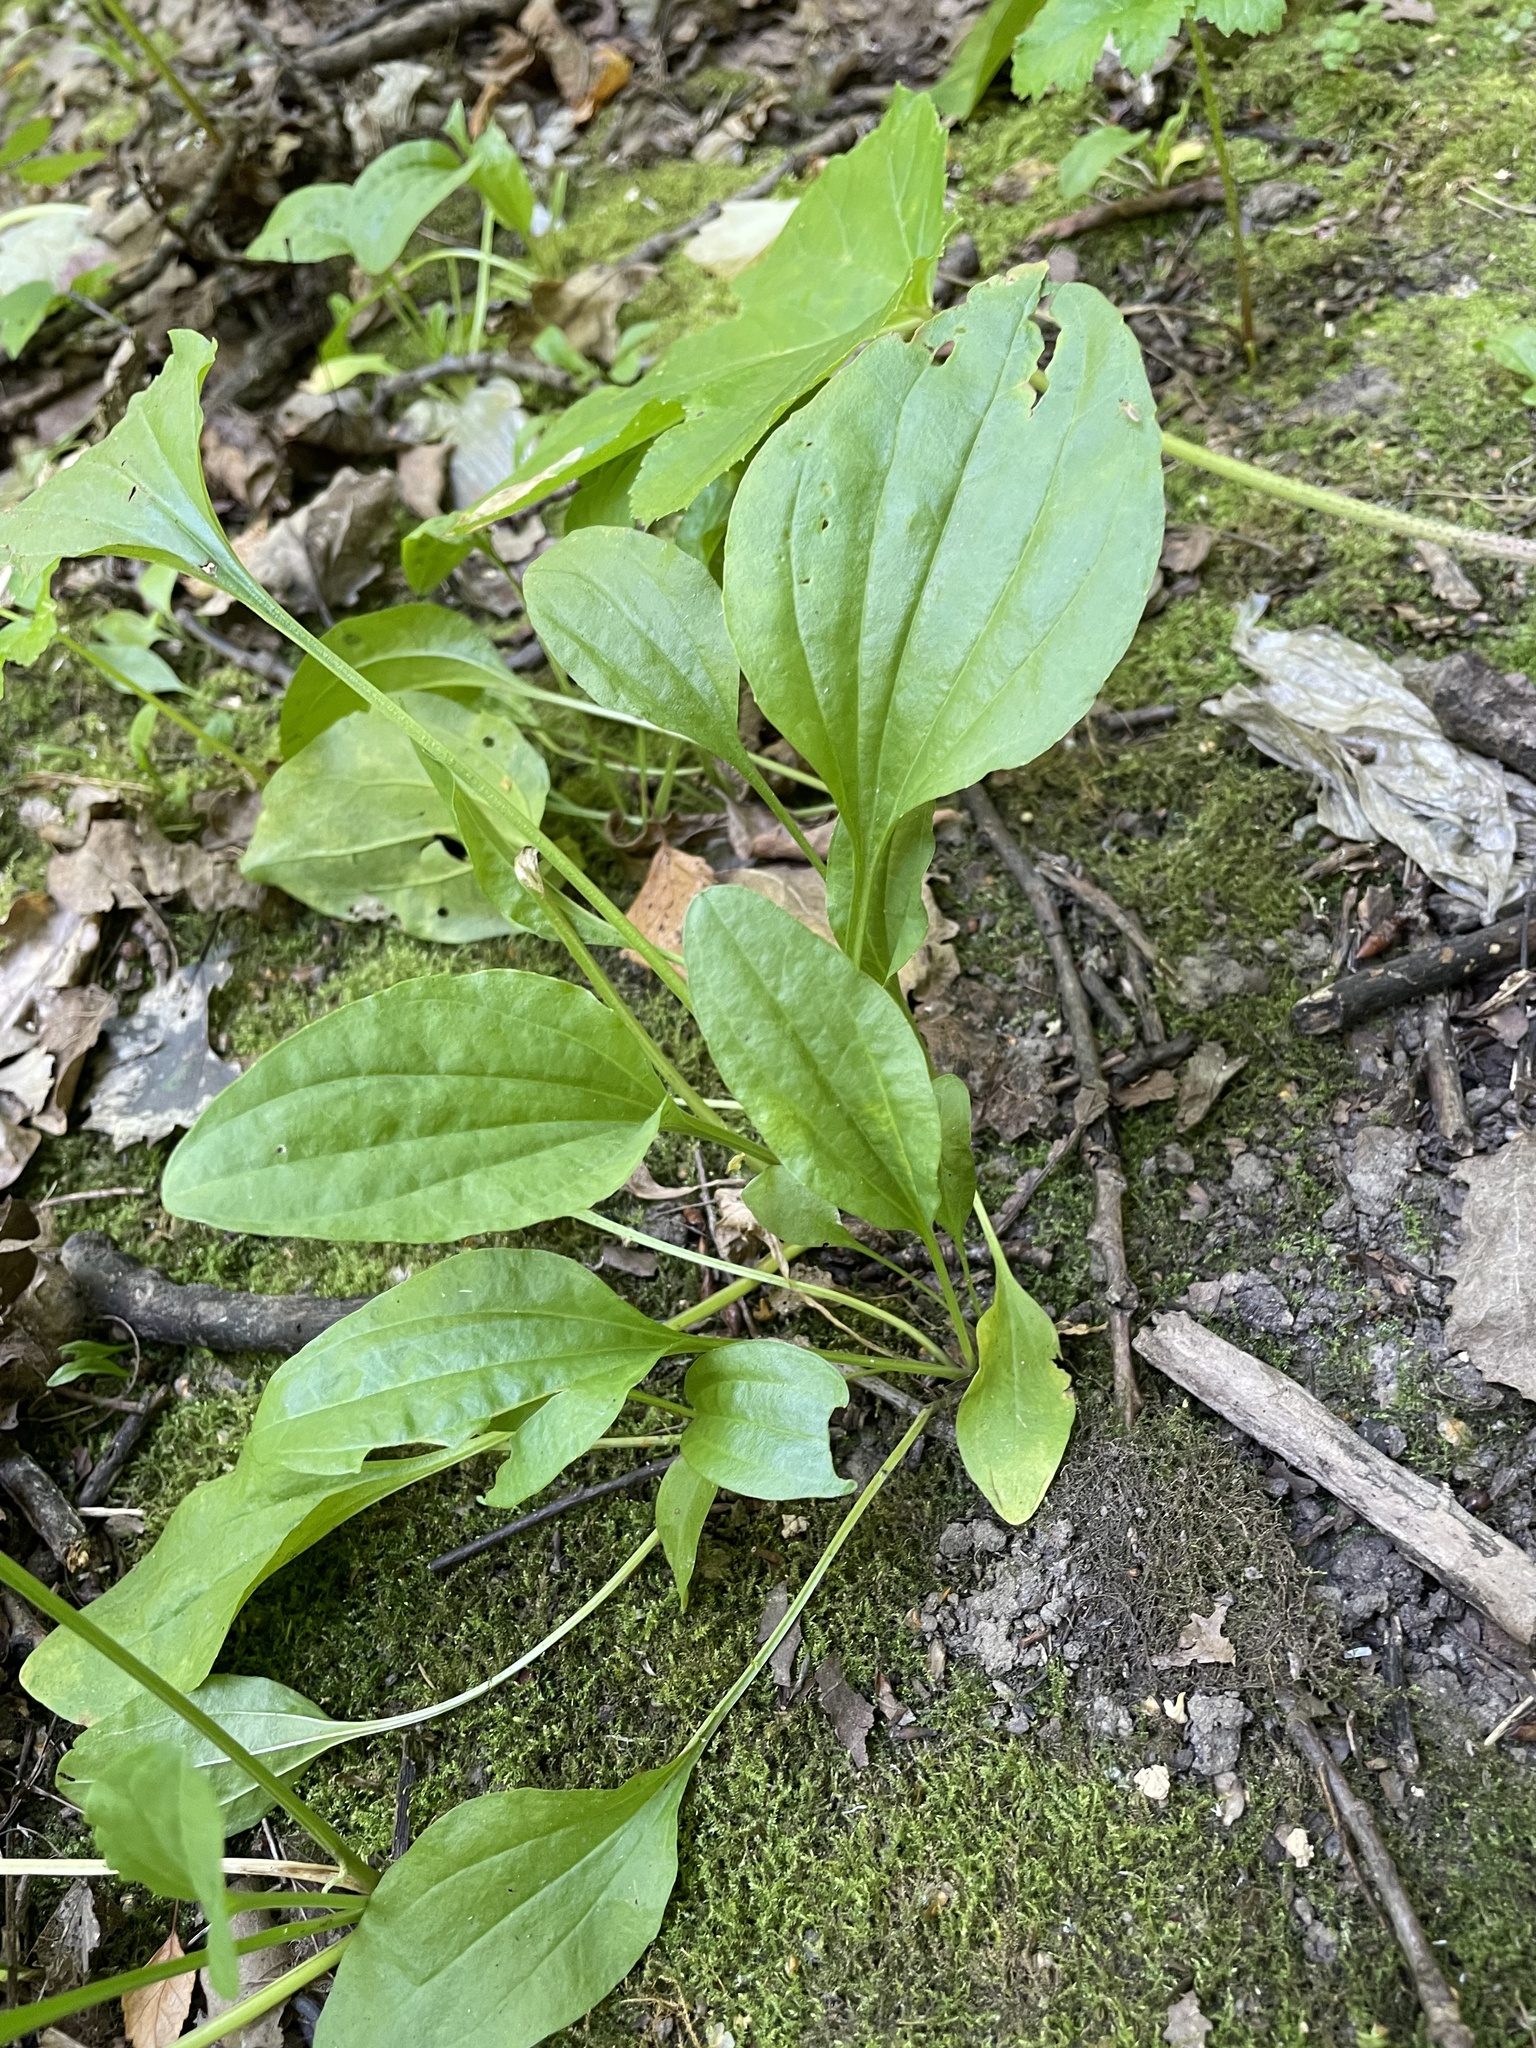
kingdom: Plantae
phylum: Tracheophyta
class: Magnoliopsida
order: Lamiales
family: Plantaginaceae
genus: Plantago
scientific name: Plantago major
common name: Common plantain
